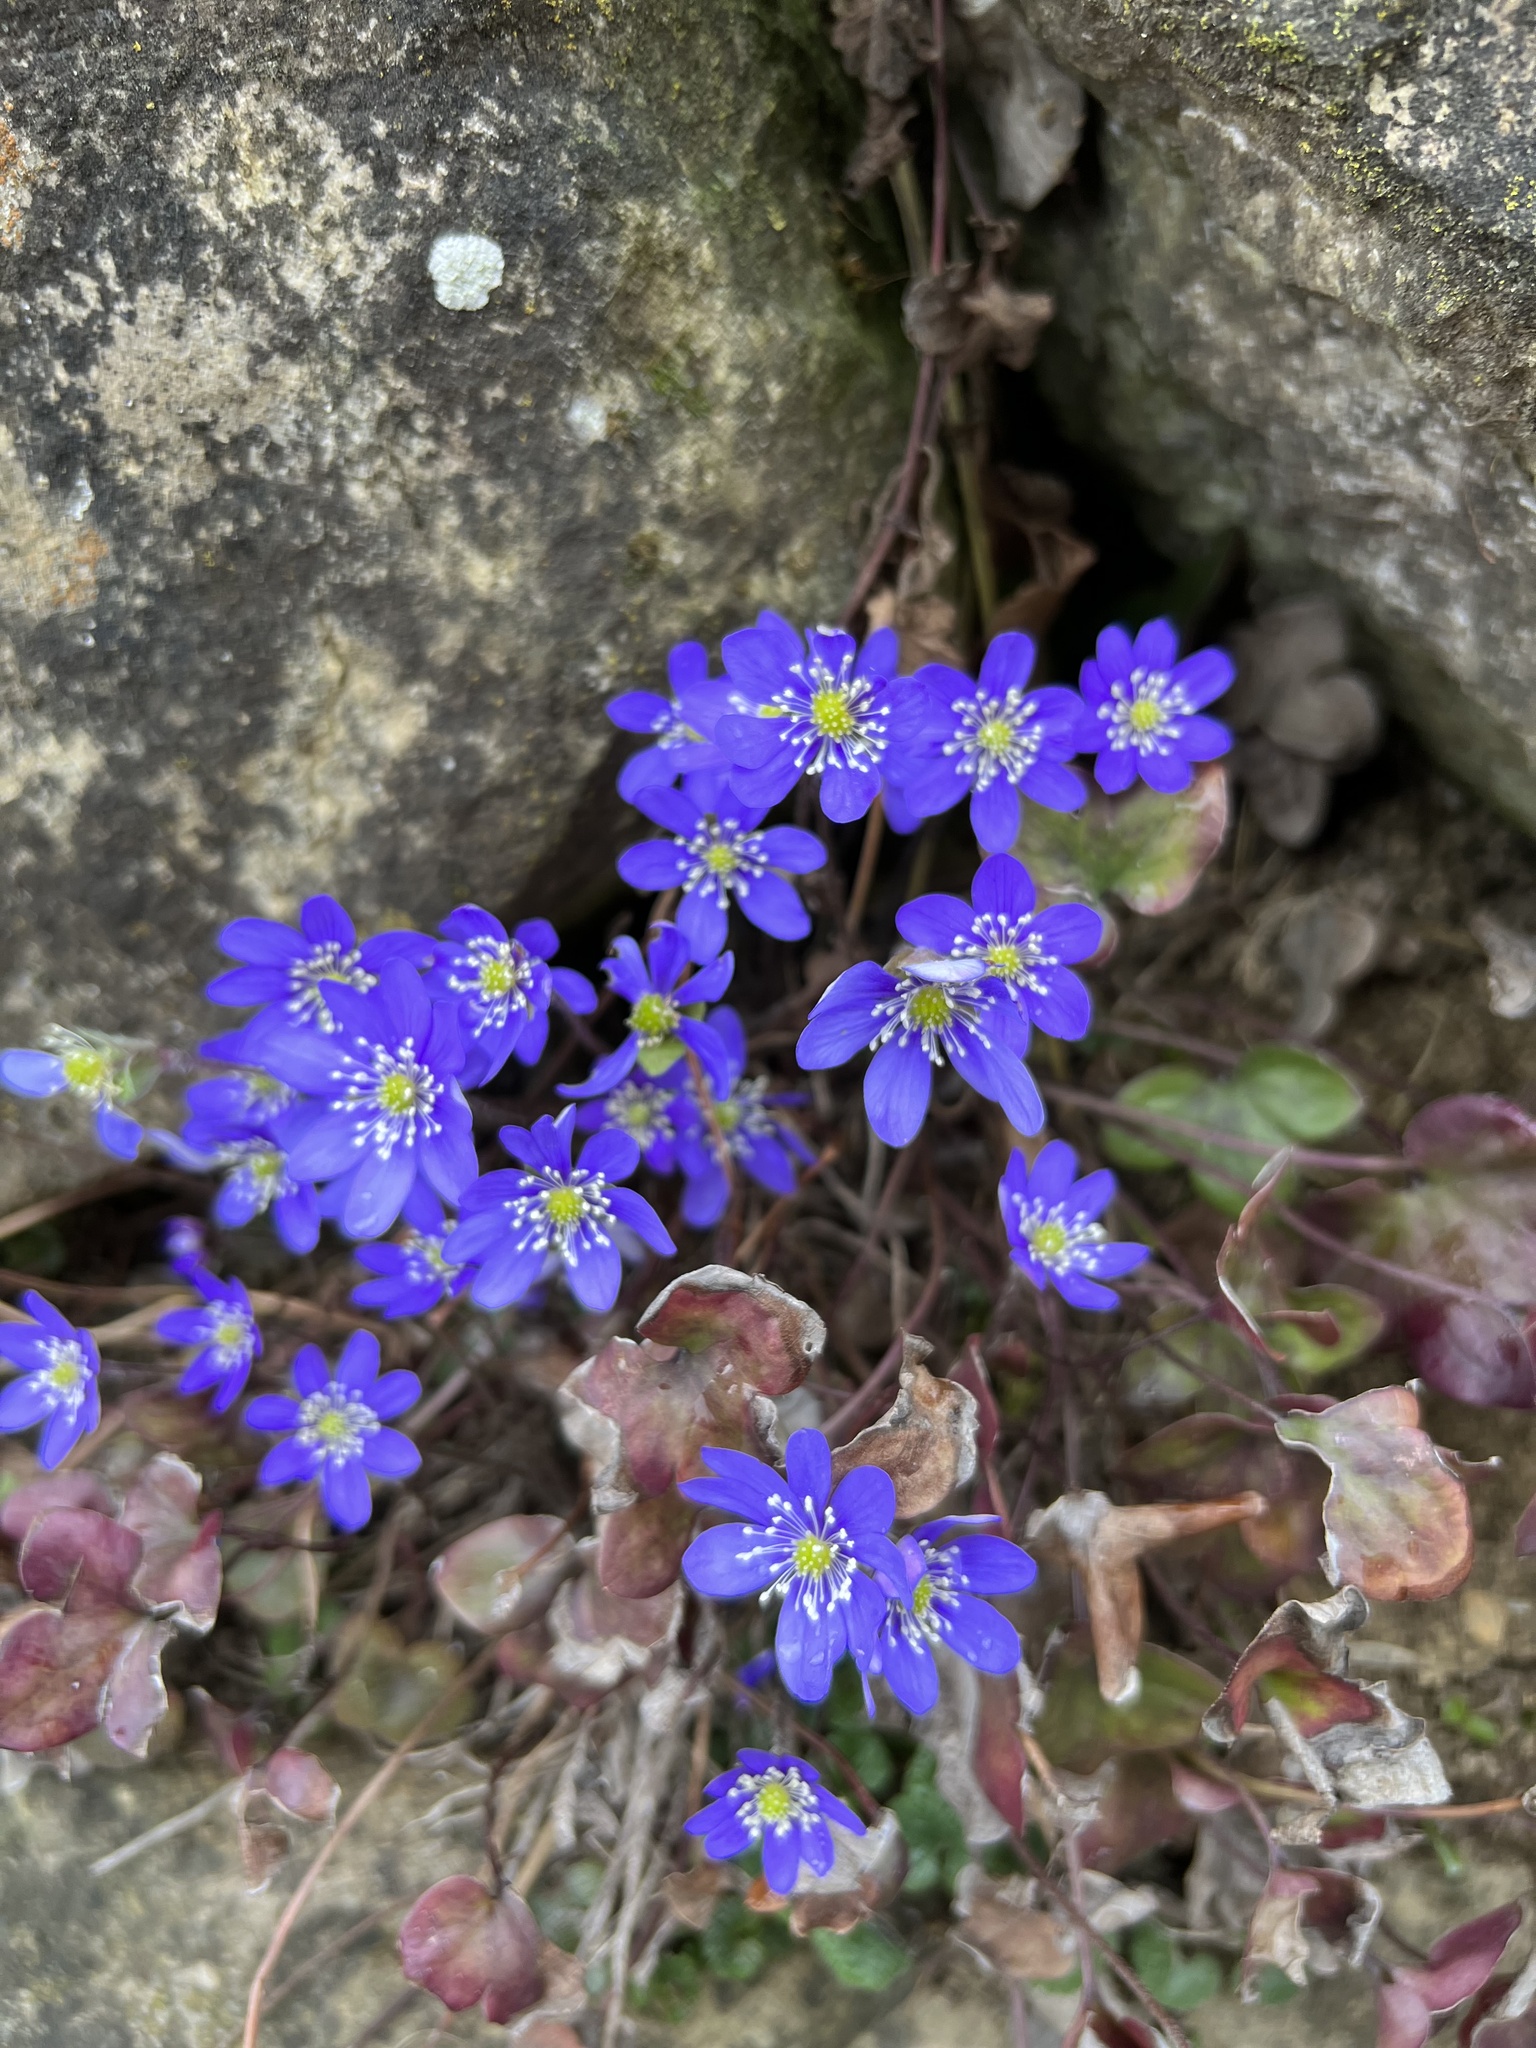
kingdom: Plantae
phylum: Tracheophyta
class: Magnoliopsida
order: Ranunculales
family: Ranunculaceae
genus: Hepatica
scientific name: Hepatica nobilis
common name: Liverleaf
